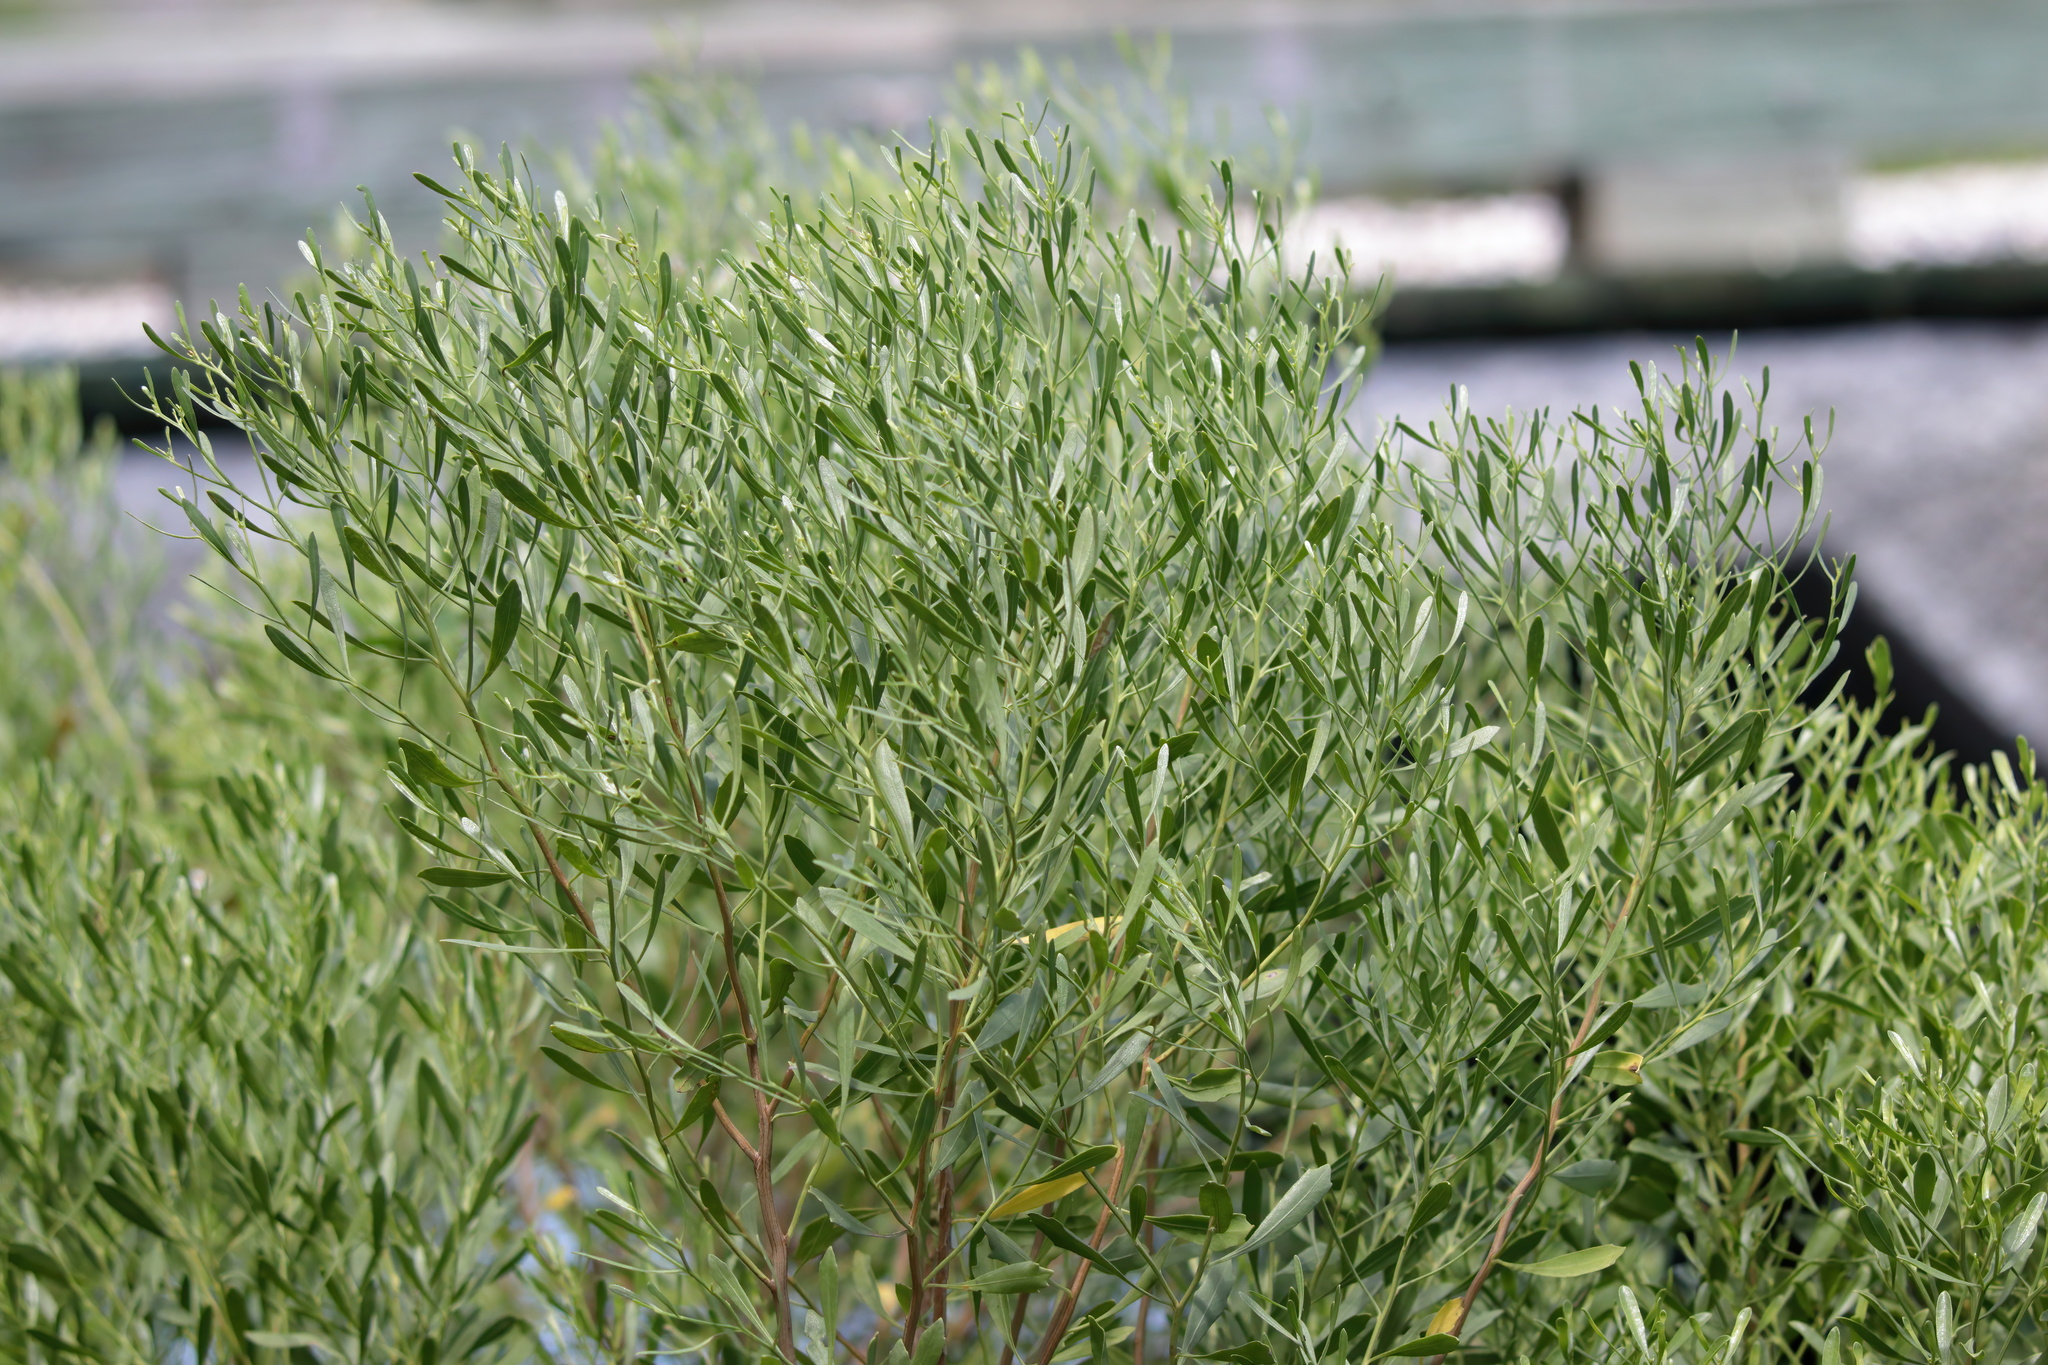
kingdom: Plantae
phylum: Tracheophyta
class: Magnoliopsida
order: Asterales
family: Asteraceae
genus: Baccharis
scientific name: Baccharis halimifolia
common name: Eastern baccharis
